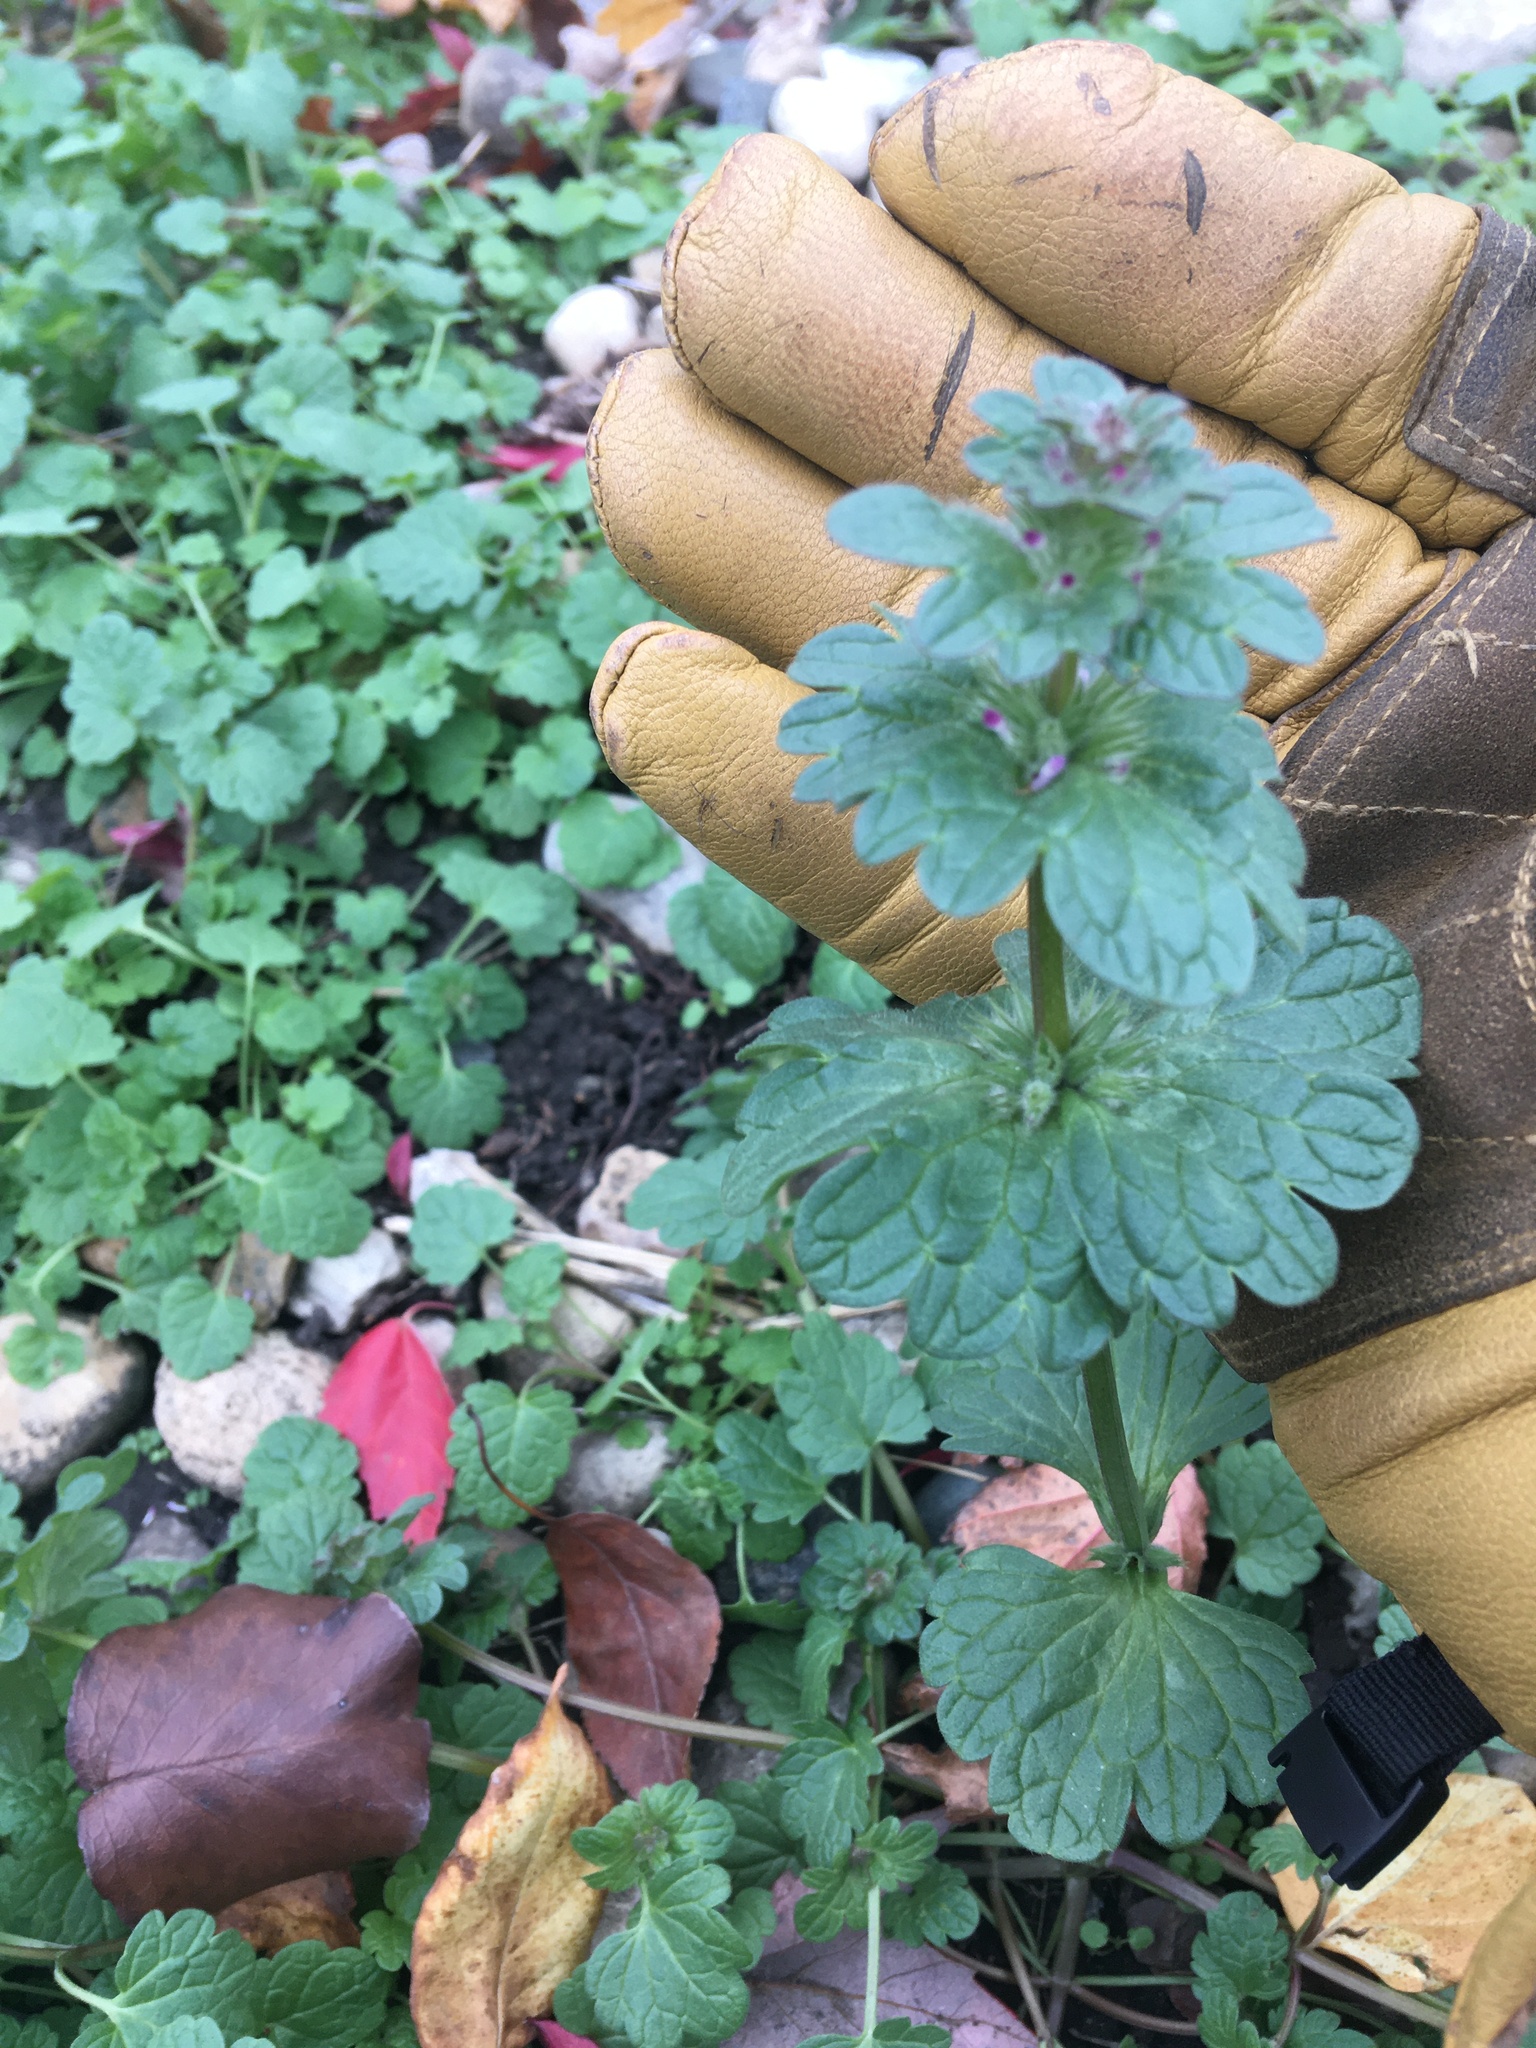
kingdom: Plantae
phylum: Tracheophyta
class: Magnoliopsida
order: Lamiales
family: Lamiaceae
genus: Lamium
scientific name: Lamium amplexicaule
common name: Henbit dead-nettle
